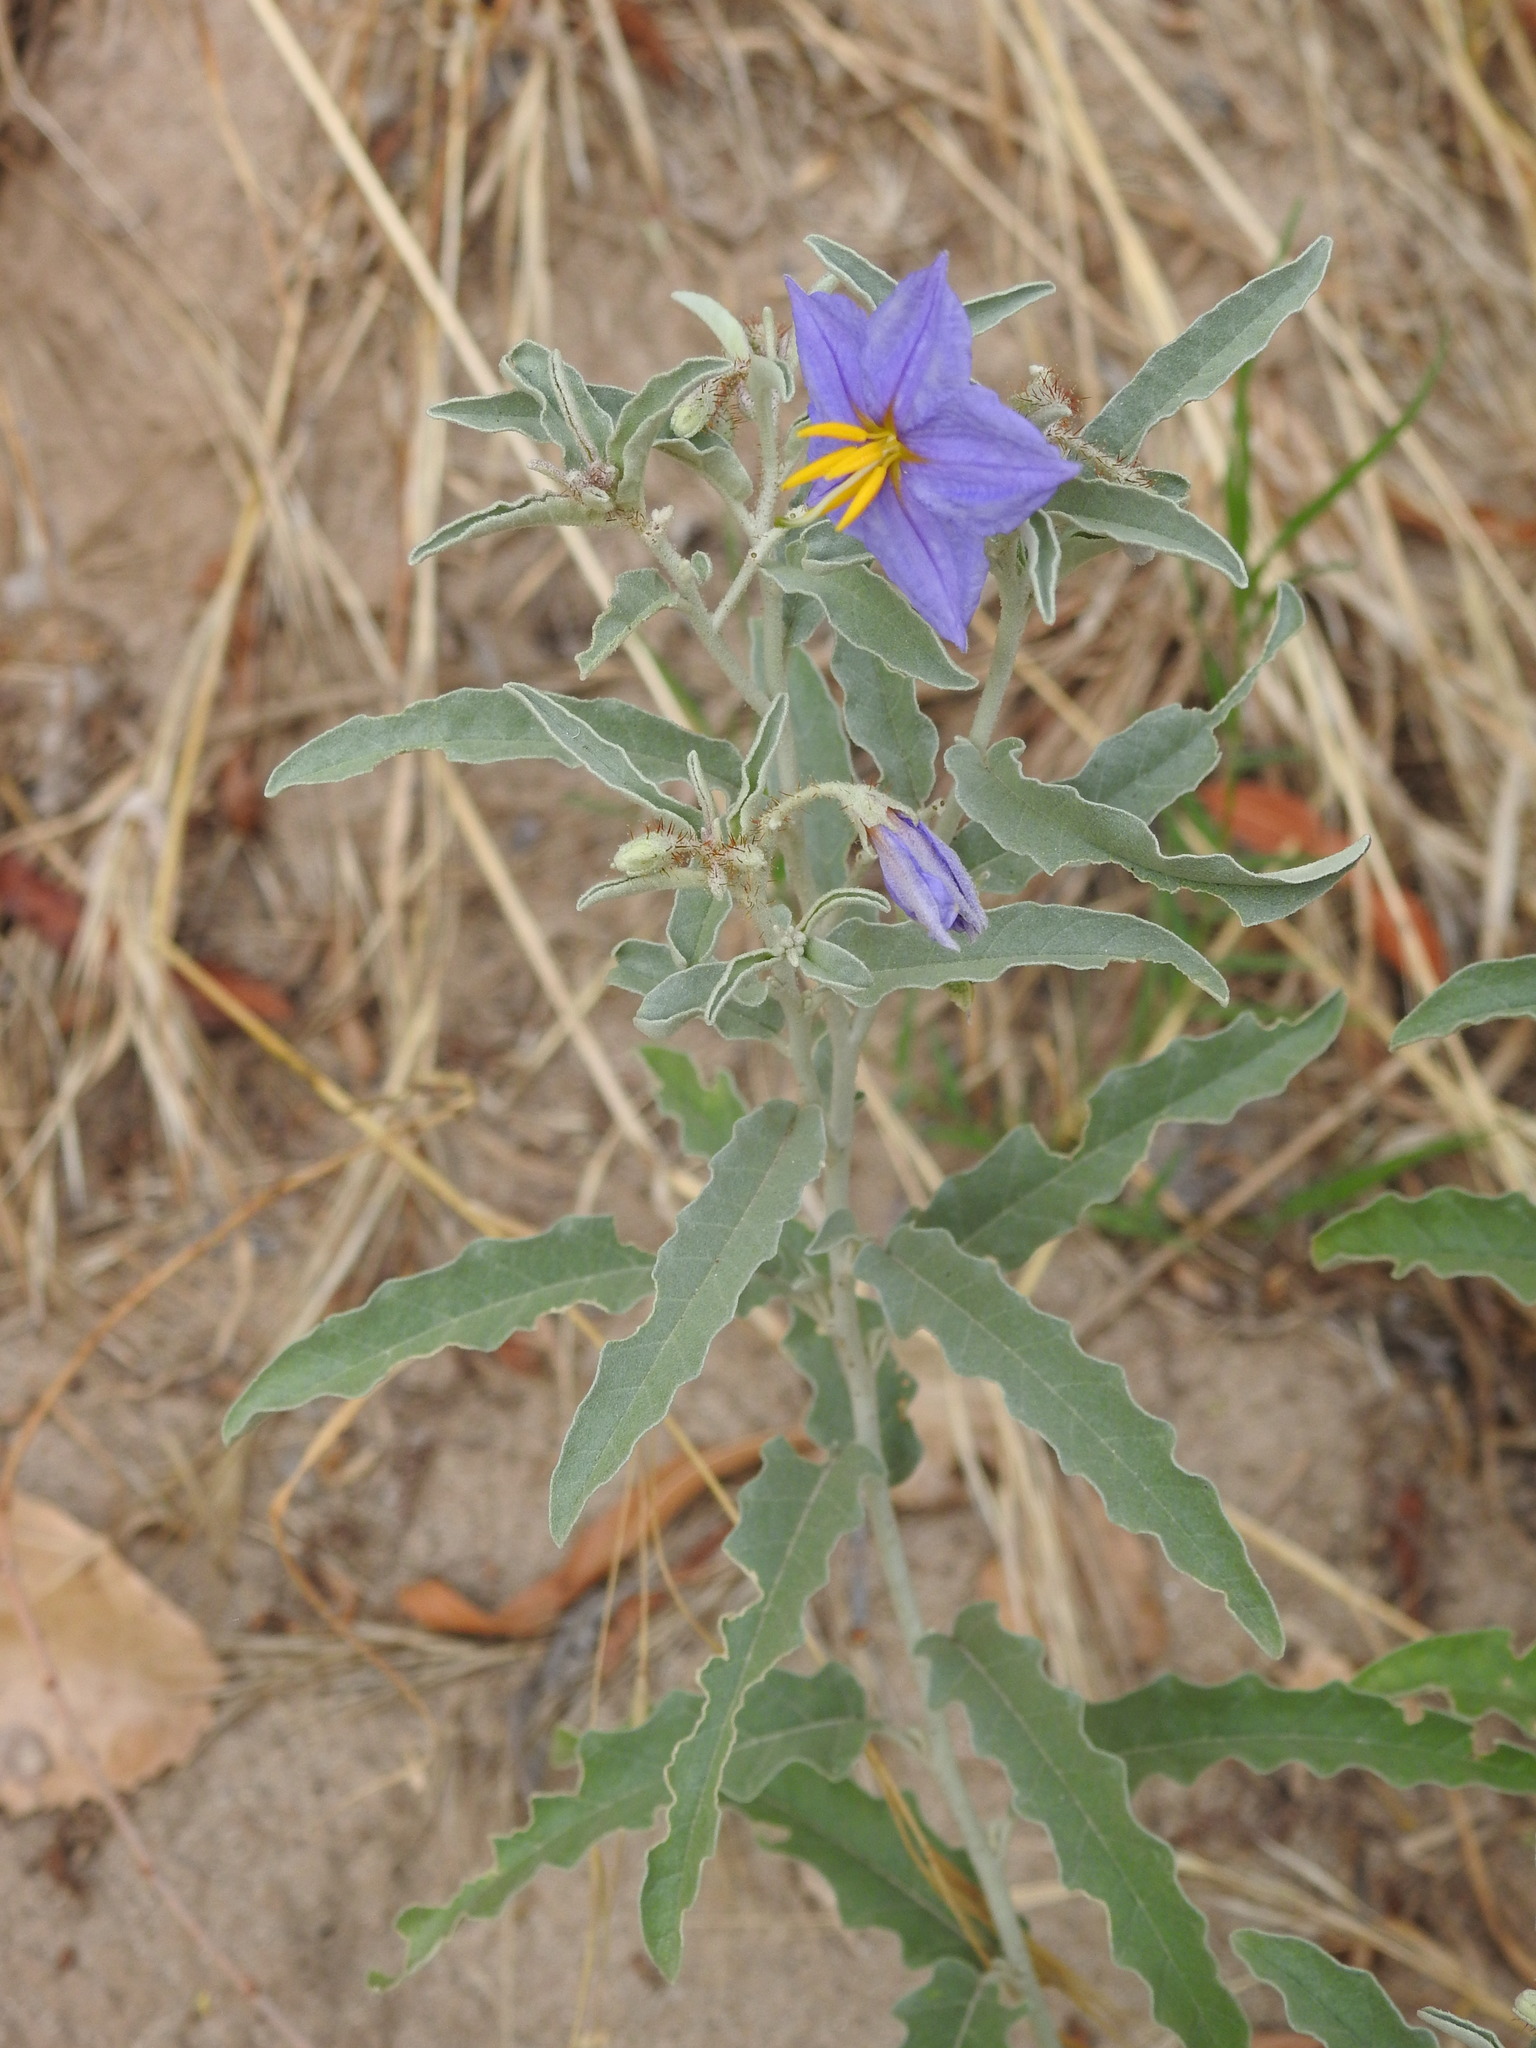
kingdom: Plantae
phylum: Tracheophyta
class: Magnoliopsida
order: Solanales
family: Solanaceae
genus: Solanum
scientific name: Solanum elaeagnifolium
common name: Silverleaf nightshade
